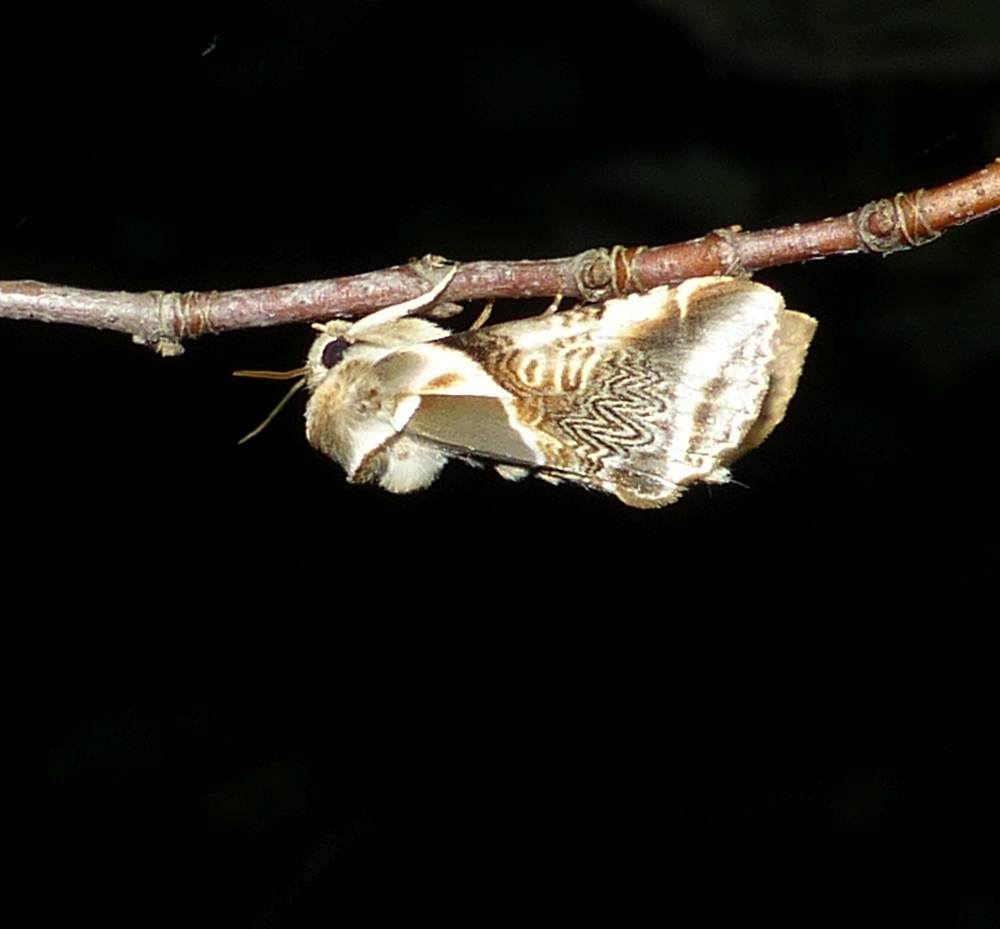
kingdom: Animalia
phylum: Arthropoda
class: Insecta
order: Lepidoptera
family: Drepanidae
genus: Habrosyne
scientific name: Habrosyne scripta
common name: Lettered habrosyne moth
